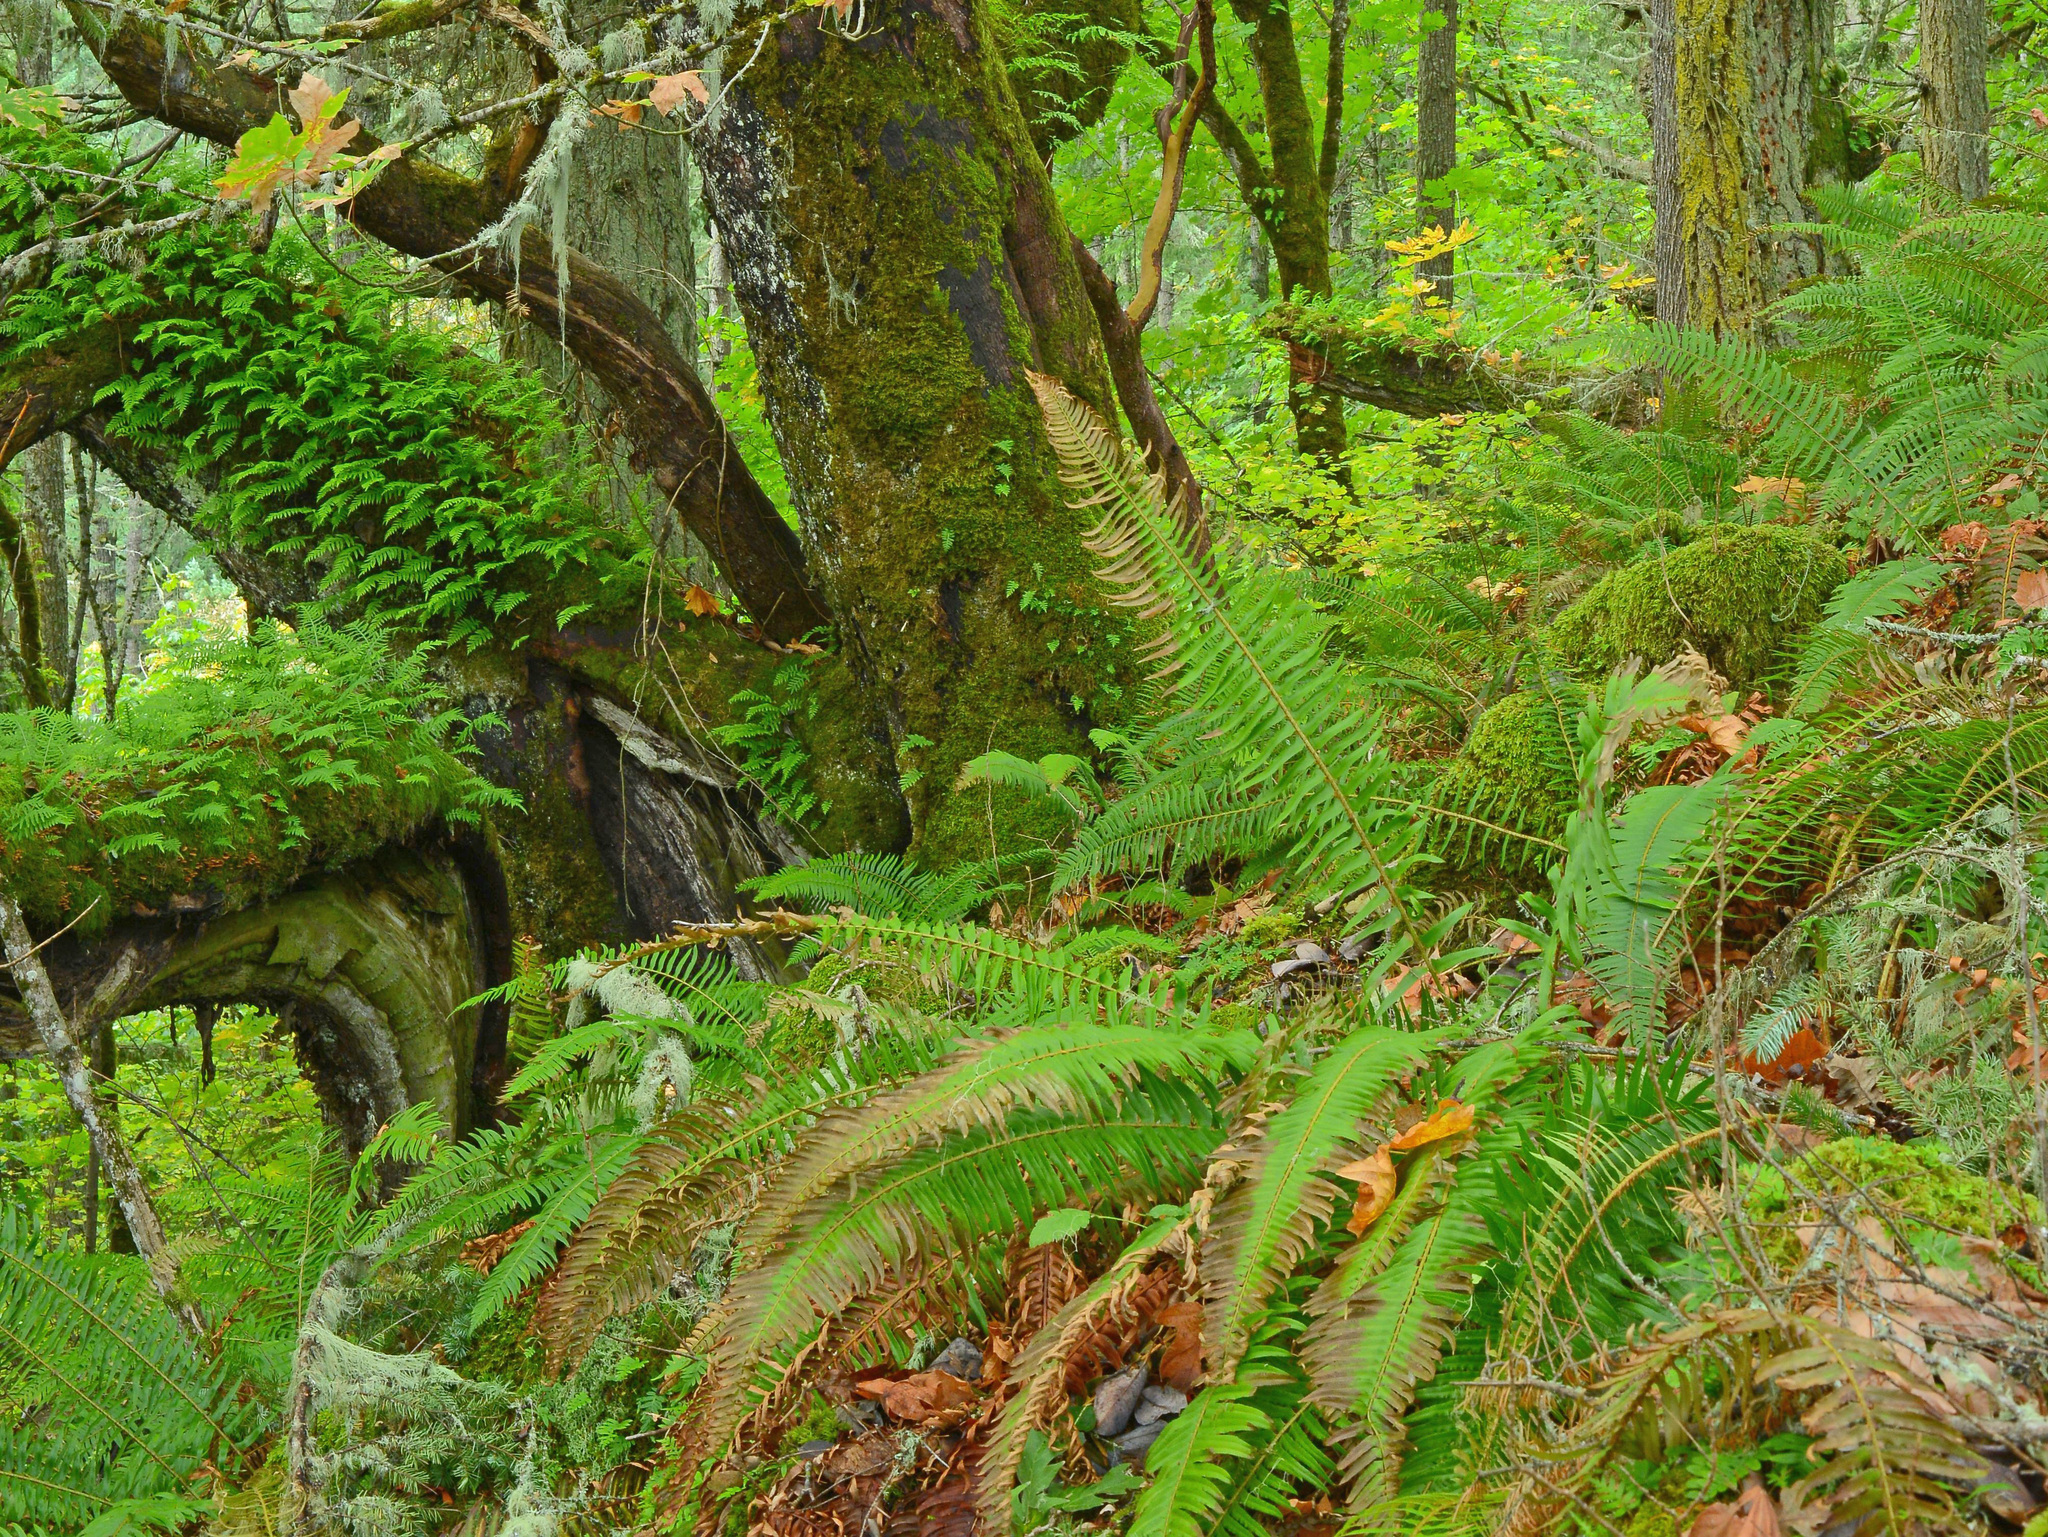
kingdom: Plantae
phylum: Tracheophyta
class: Polypodiopsida
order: Polypodiales
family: Dryopteridaceae
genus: Polystichum
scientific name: Polystichum munitum
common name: Western sword-fern
